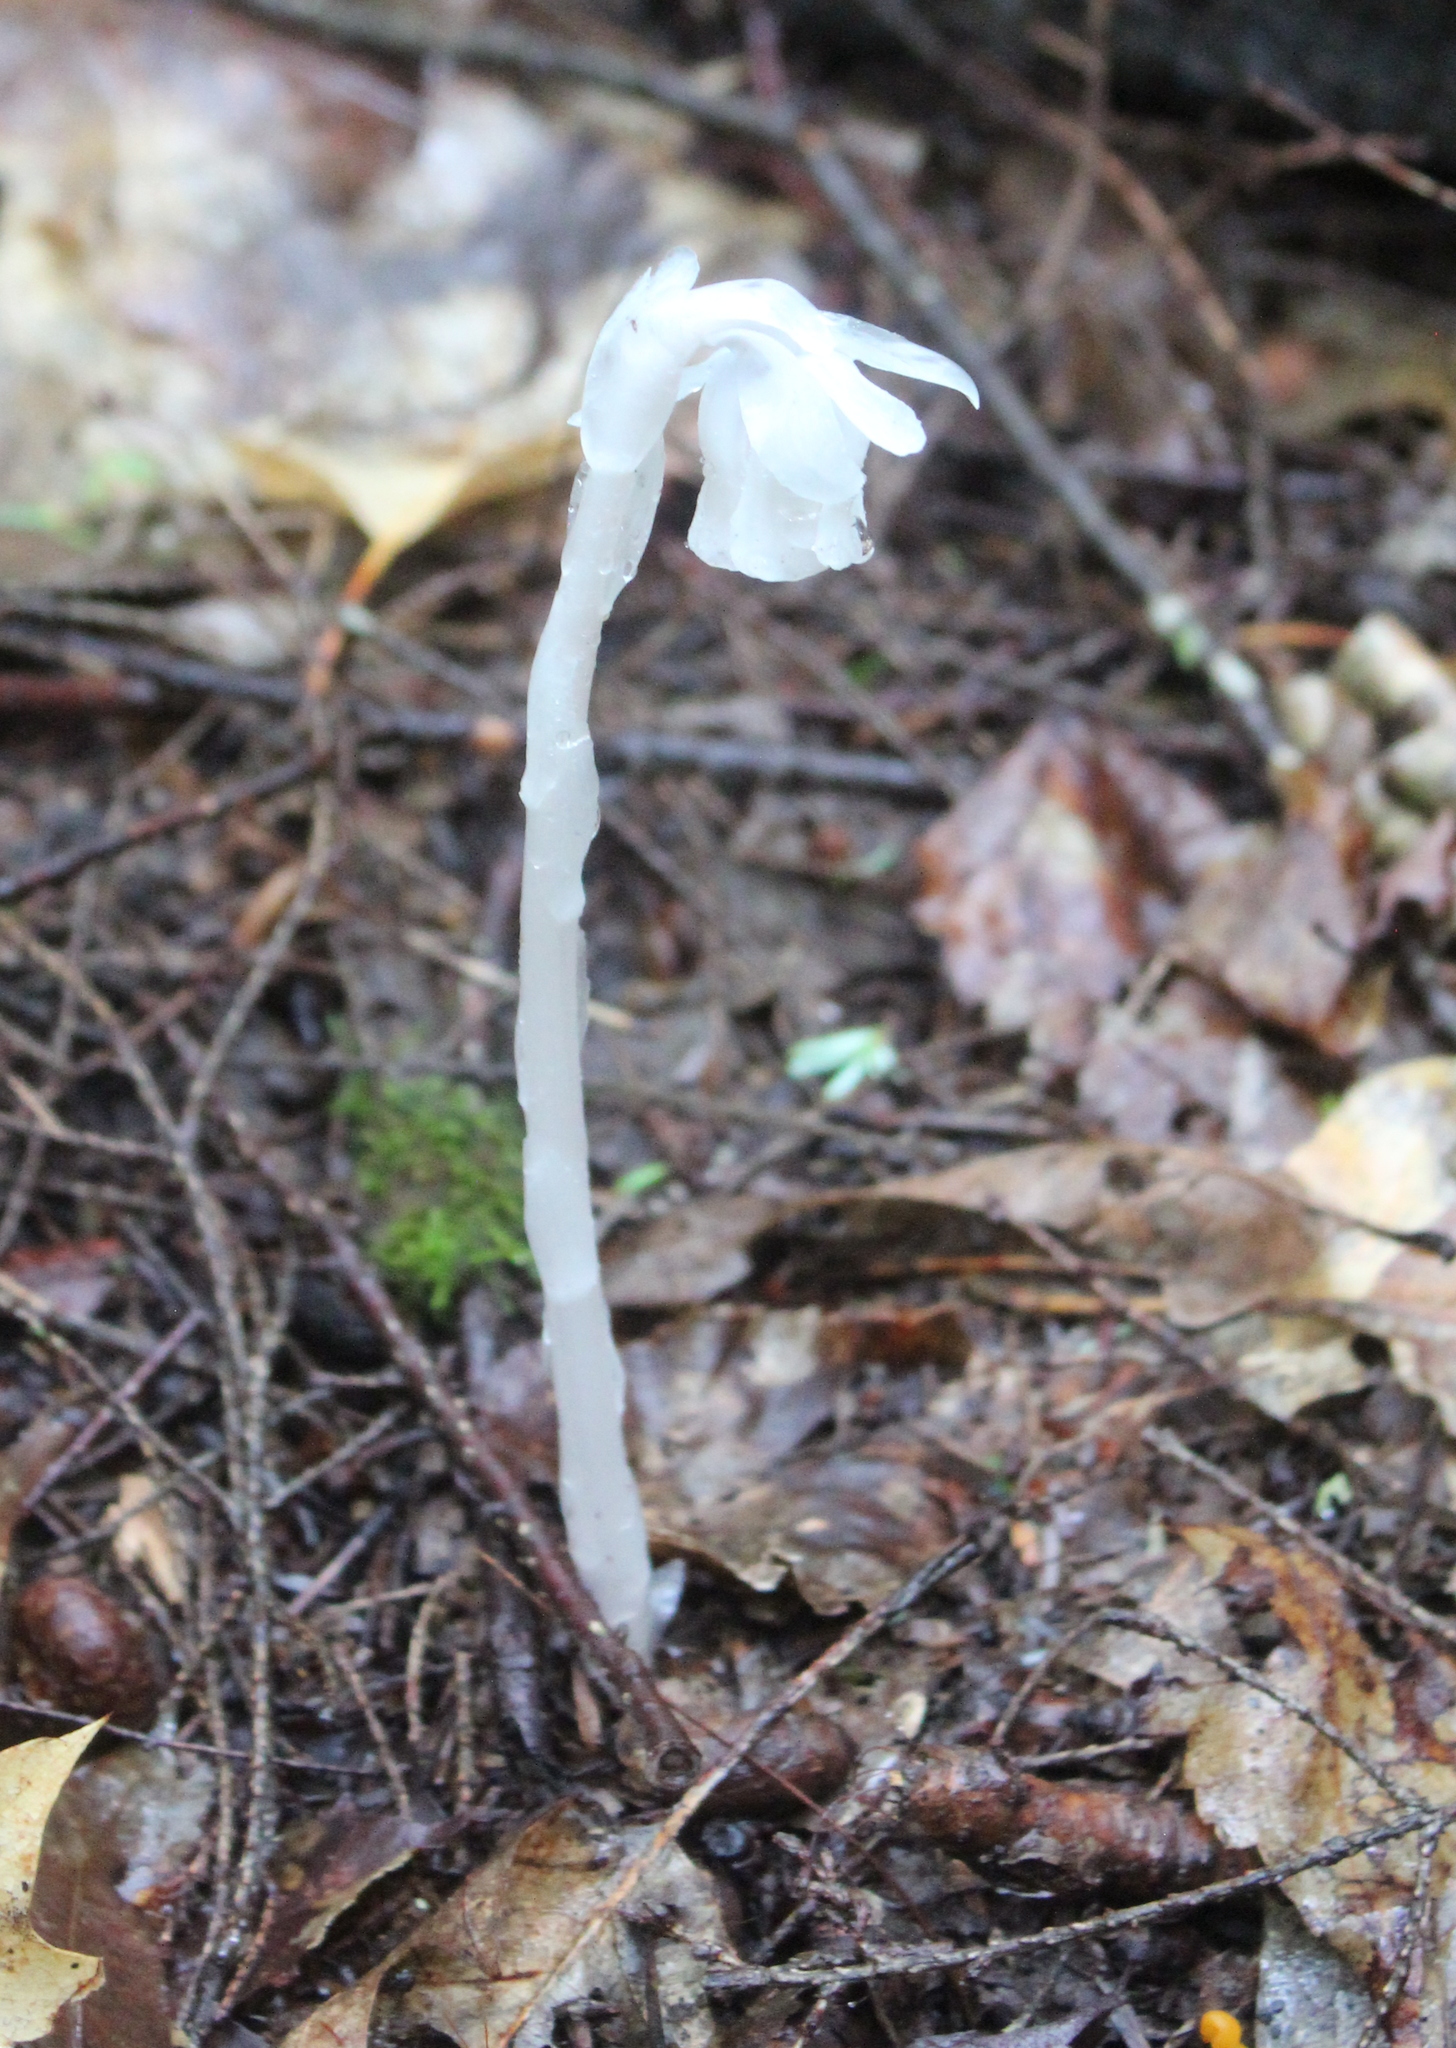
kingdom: Plantae
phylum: Tracheophyta
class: Magnoliopsida
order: Ericales
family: Ericaceae
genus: Monotropa
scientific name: Monotropa uniflora
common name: Convulsion root
